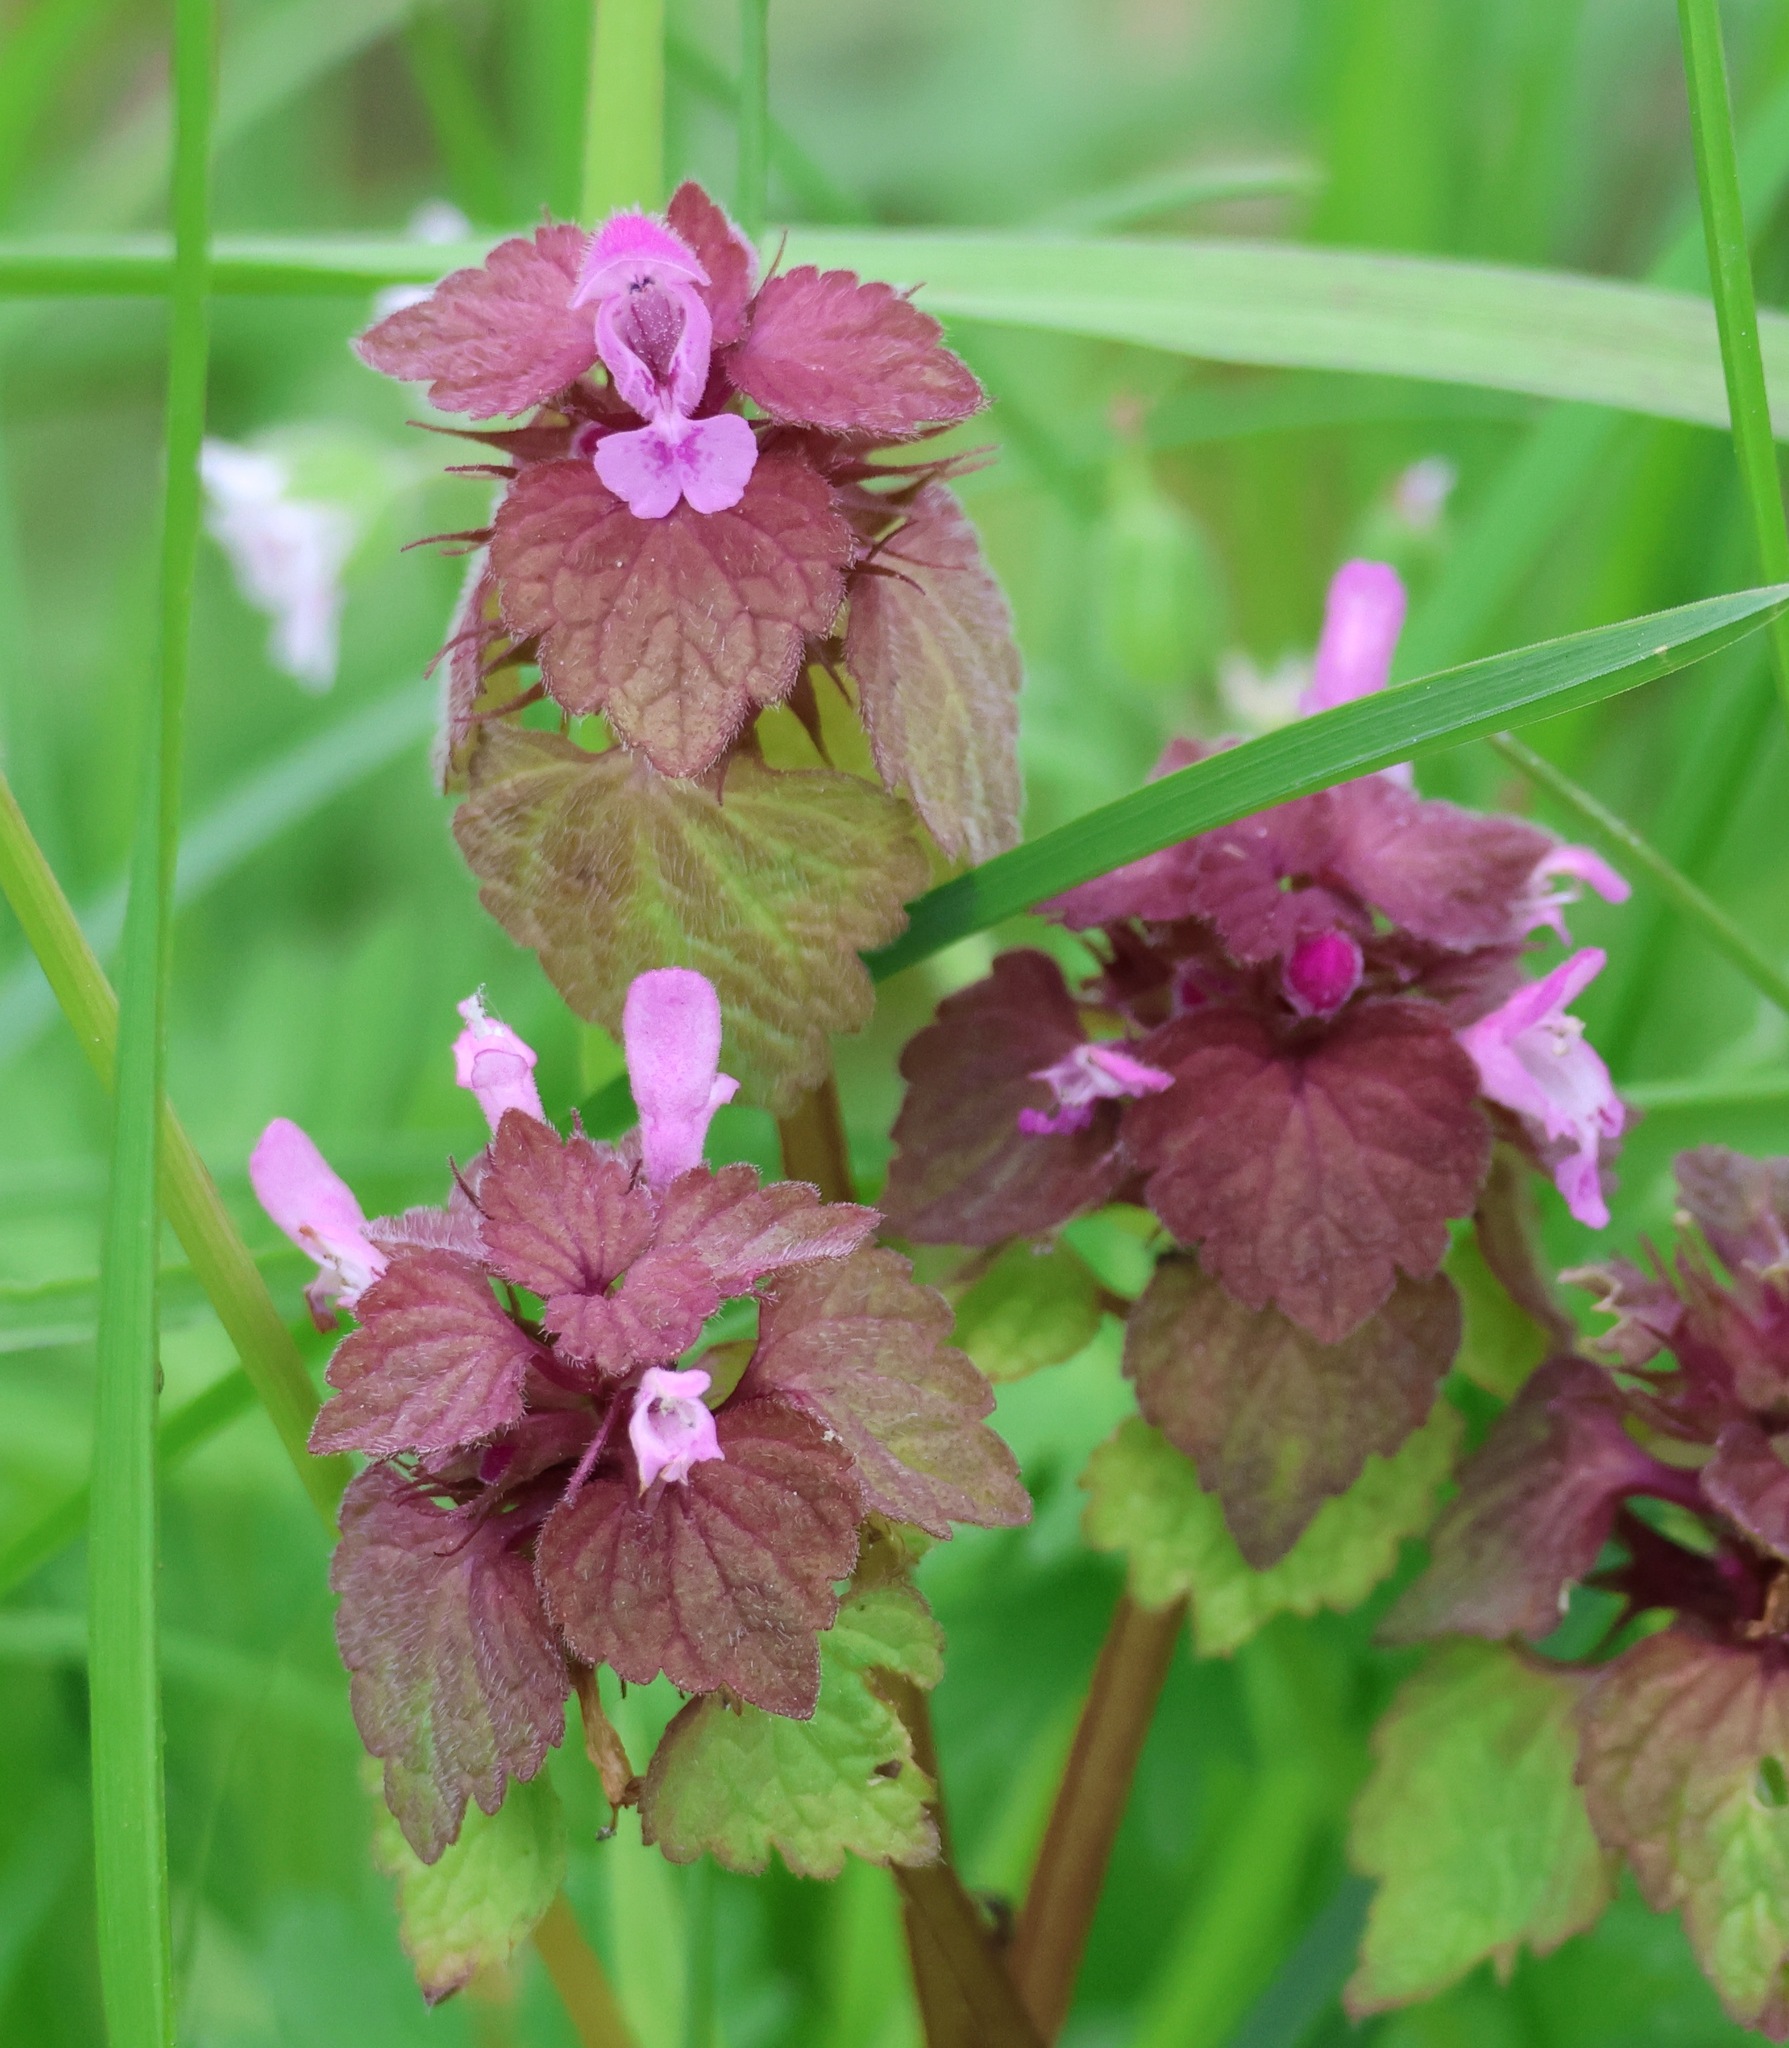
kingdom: Plantae
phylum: Tracheophyta
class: Magnoliopsida
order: Lamiales
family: Lamiaceae
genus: Lamium
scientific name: Lamium purpureum
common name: Red dead-nettle
